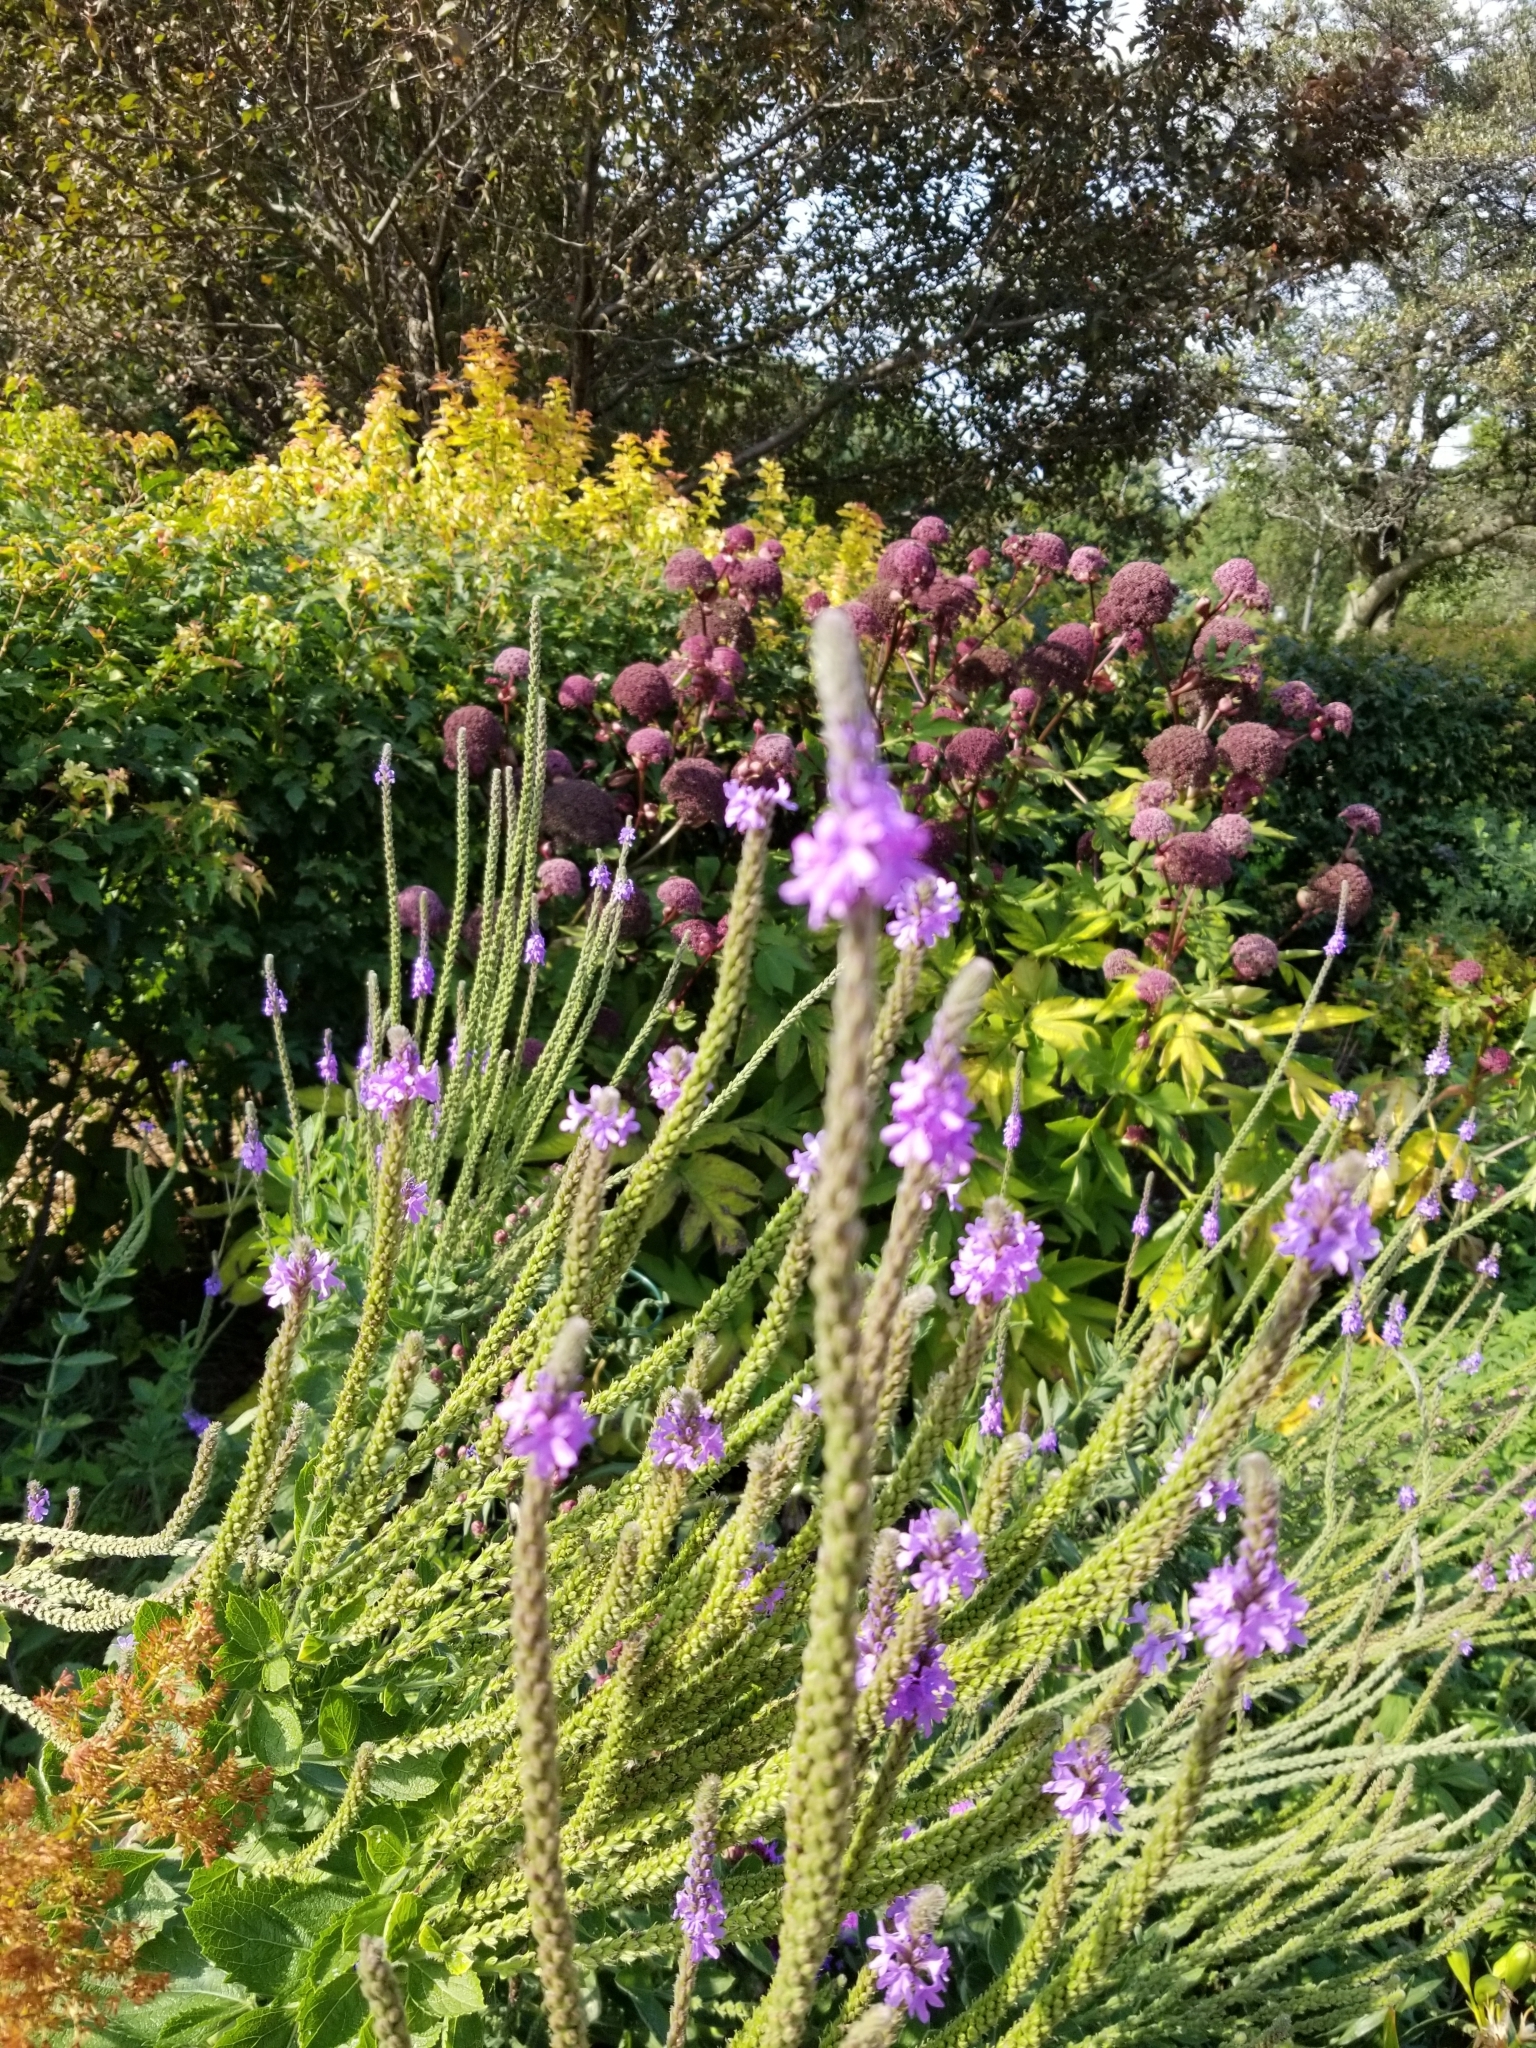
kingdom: Plantae
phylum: Tracheophyta
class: Magnoliopsida
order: Lamiales
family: Verbenaceae
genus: Verbena
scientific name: Verbena stricta
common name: Hoary vervain
